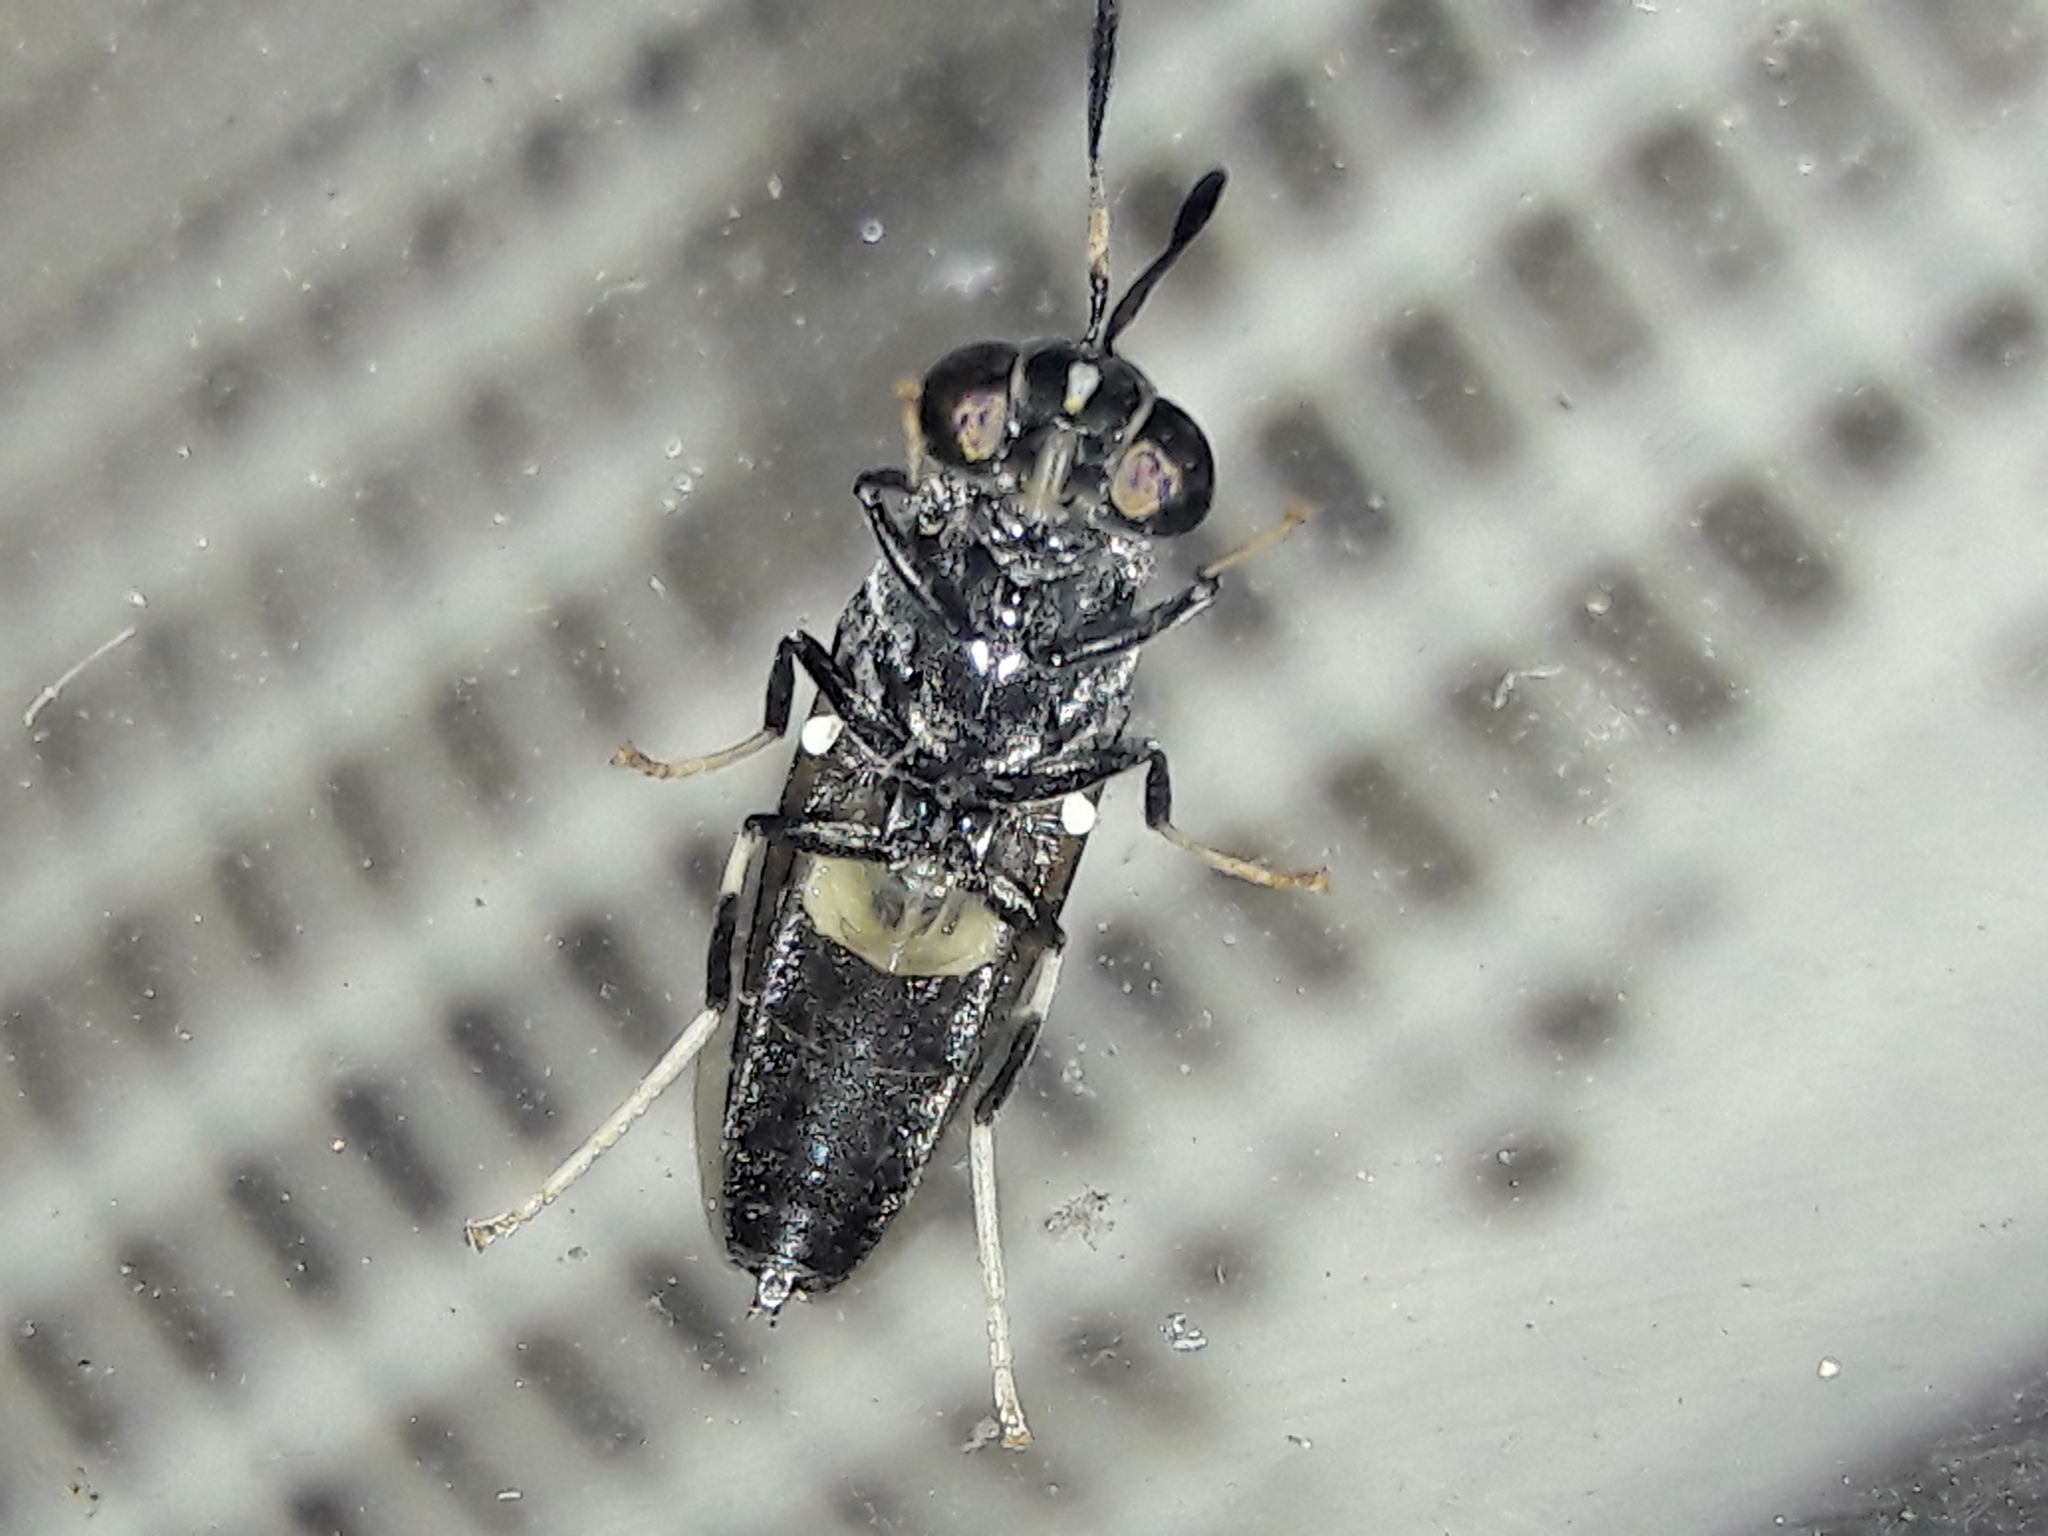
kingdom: Animalia
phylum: Arthropoda
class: Insecta
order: Diptera
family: Stratiomyidae
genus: Hermetia
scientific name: Hermetia illucens
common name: Black soldier fly
